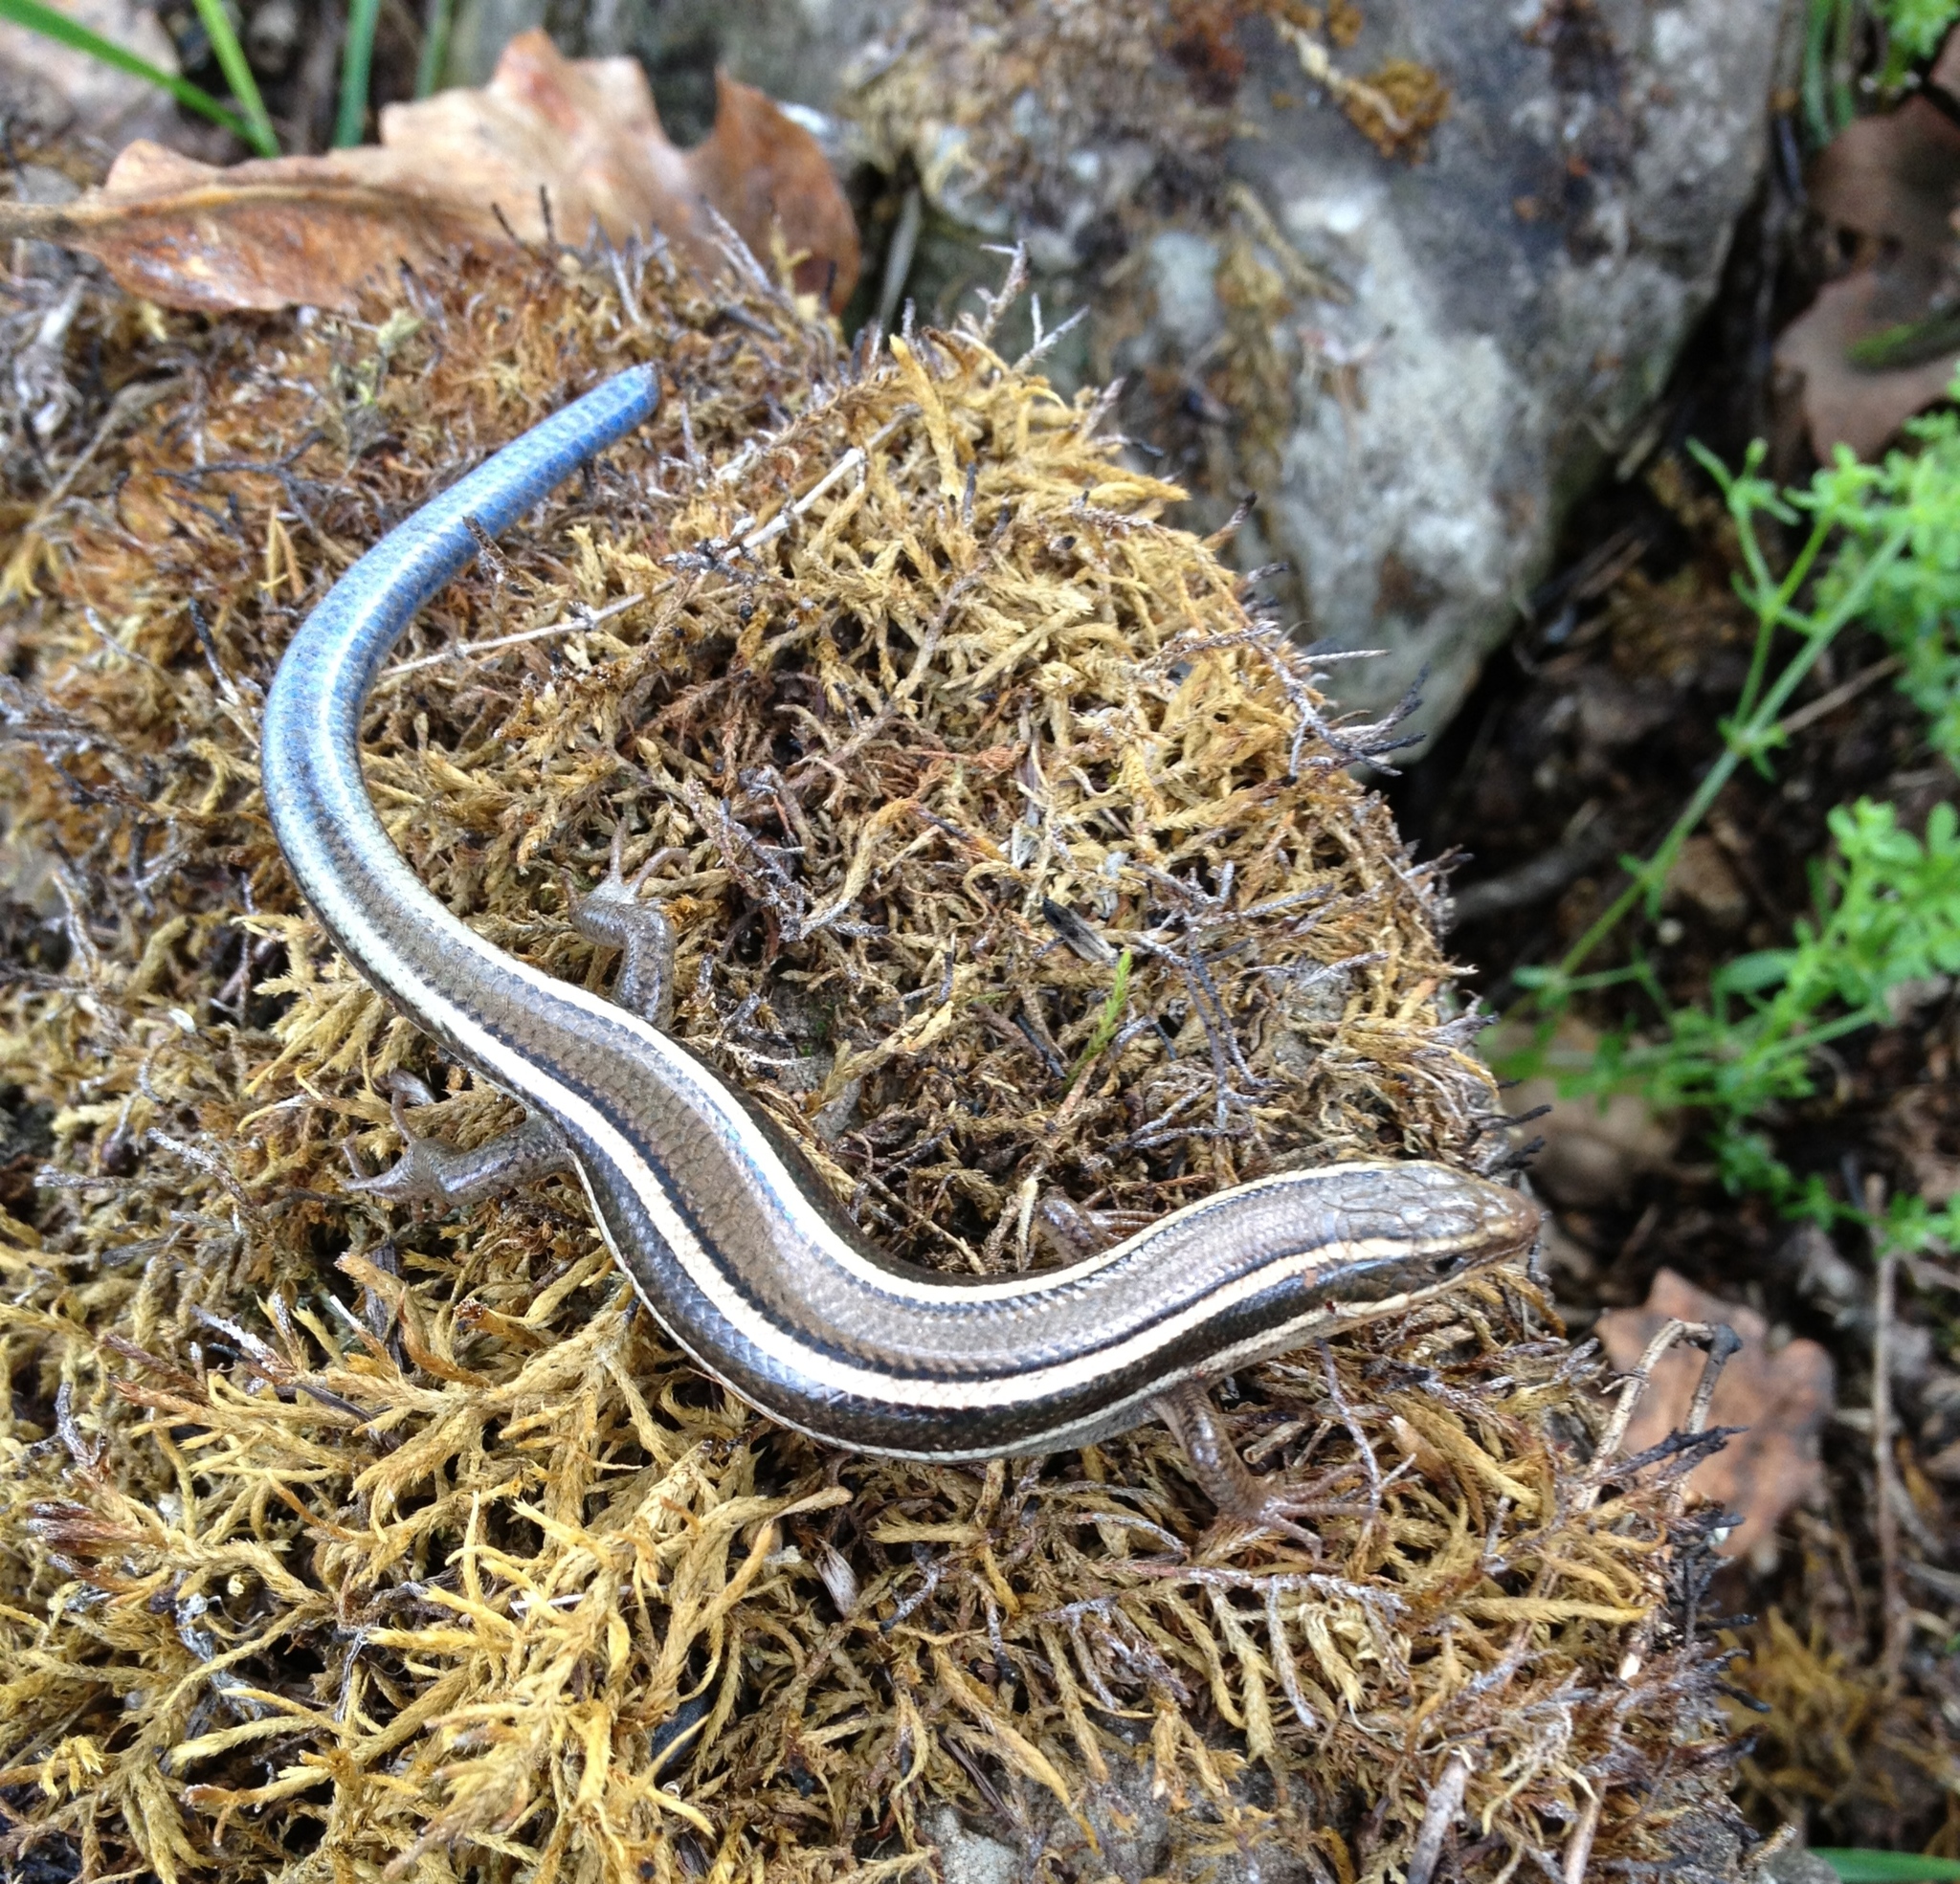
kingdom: Animalia
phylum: Chordata
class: Squamata
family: Scincidae
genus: Plestiodon
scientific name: Plestiodon skiltonianus
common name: Coronado island skink [interparietalis]
